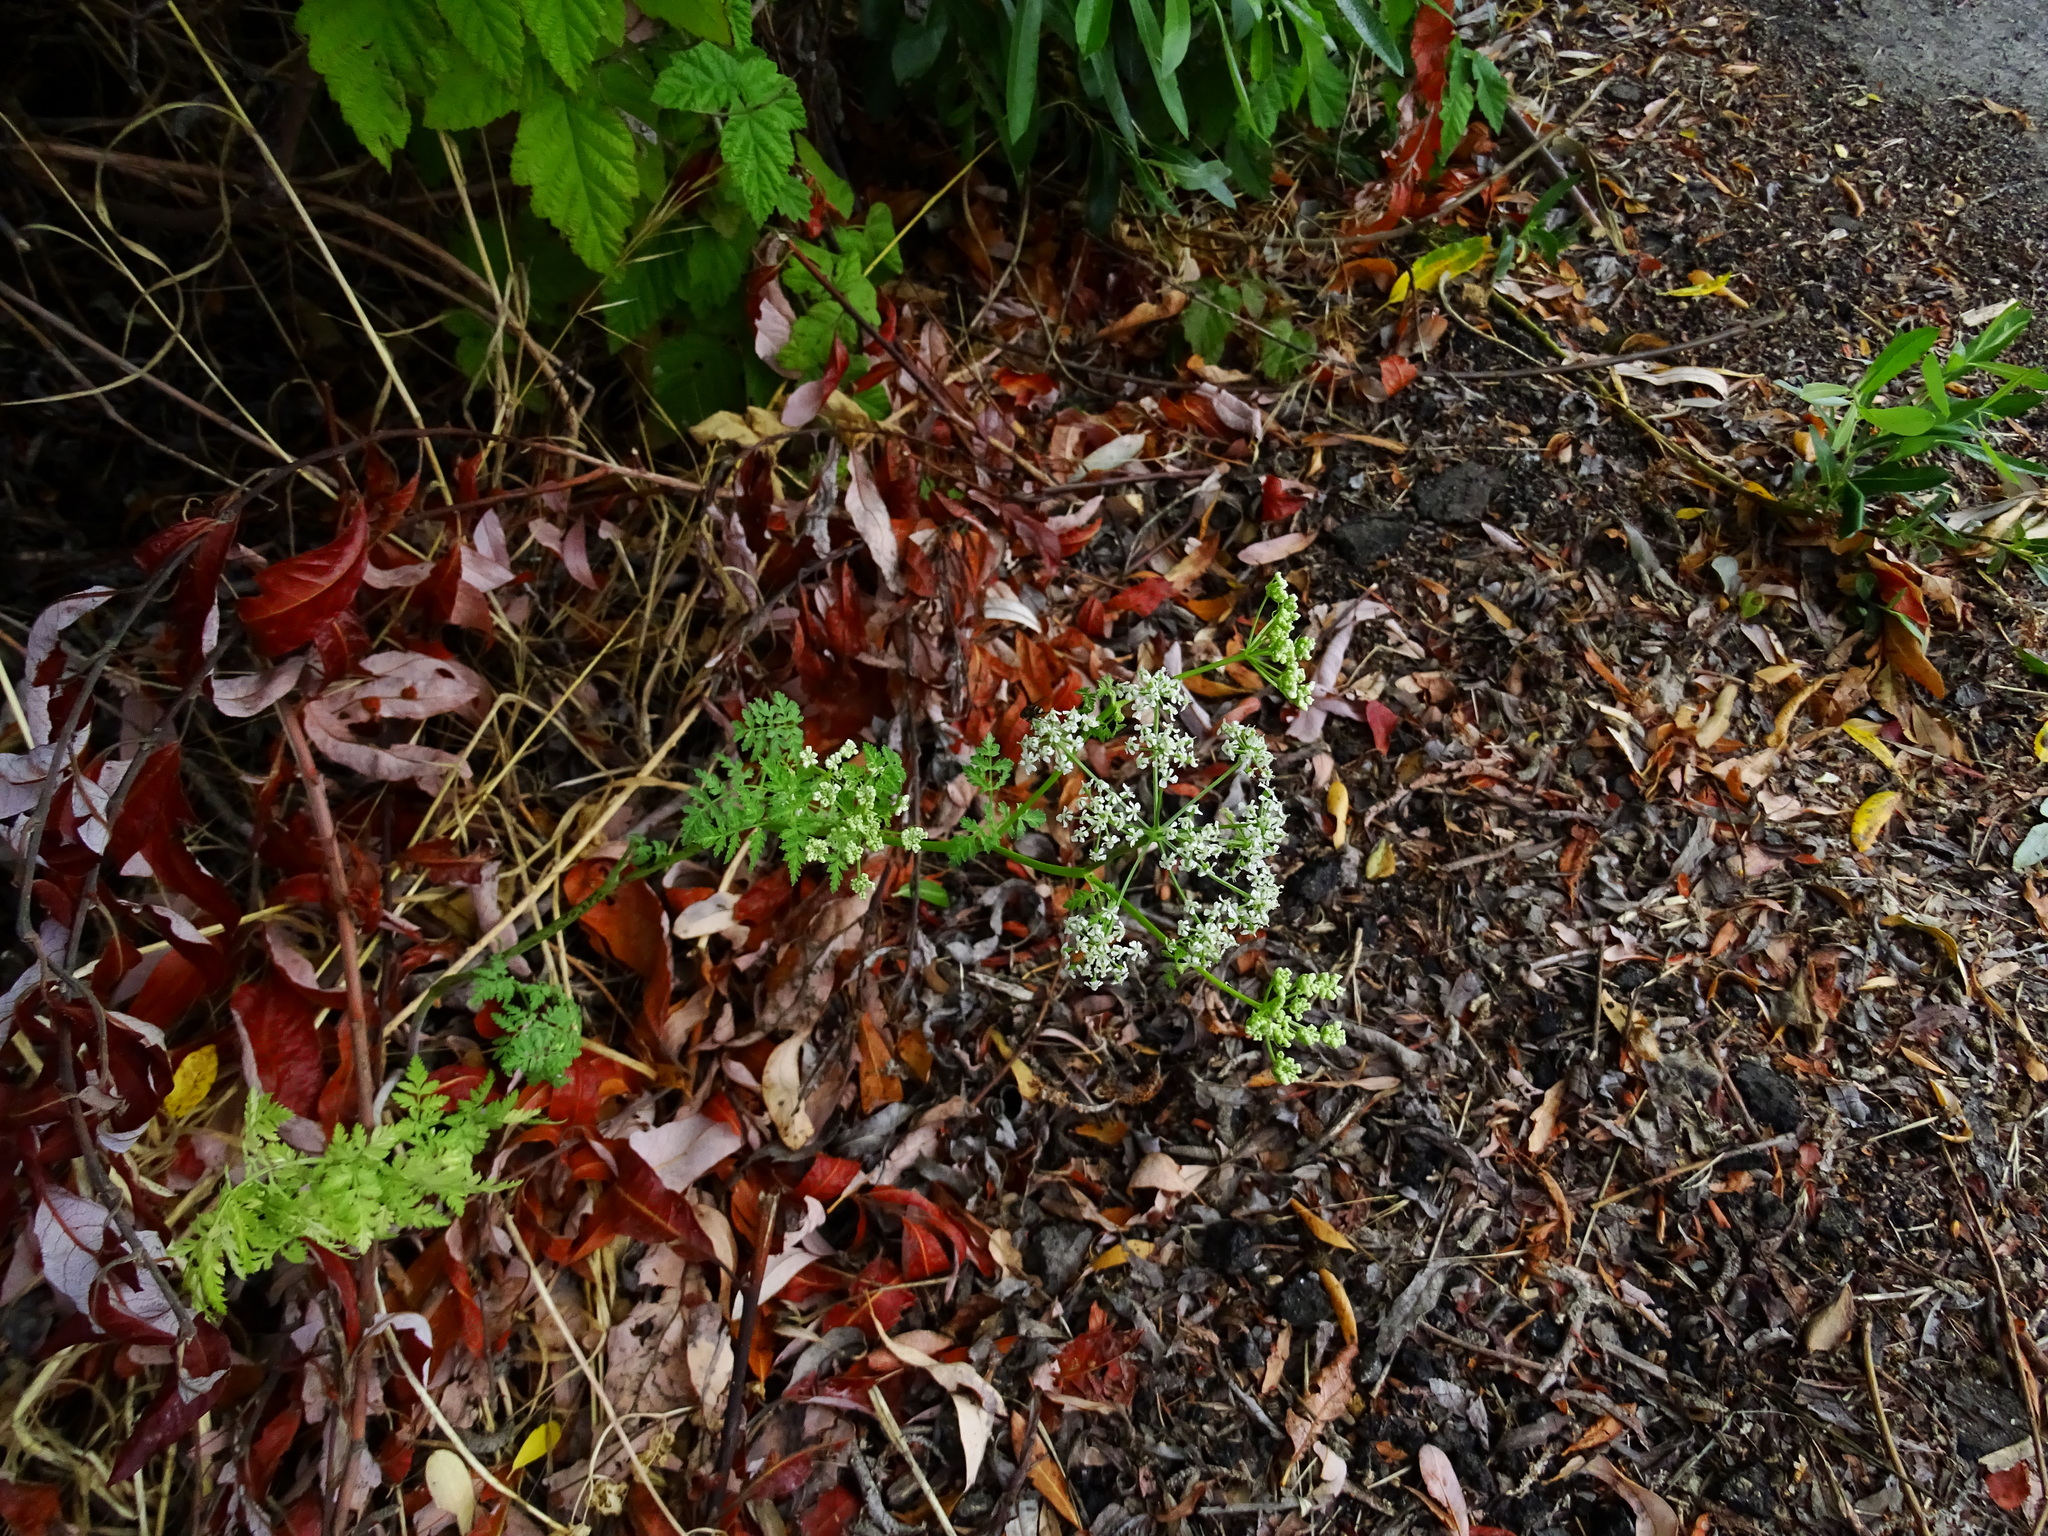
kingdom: Plantae
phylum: Tracheophyta
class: Magnoliopsida
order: Apiales
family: Apiaceae
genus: Conium
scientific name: Conium maculatum
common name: Hemlock
